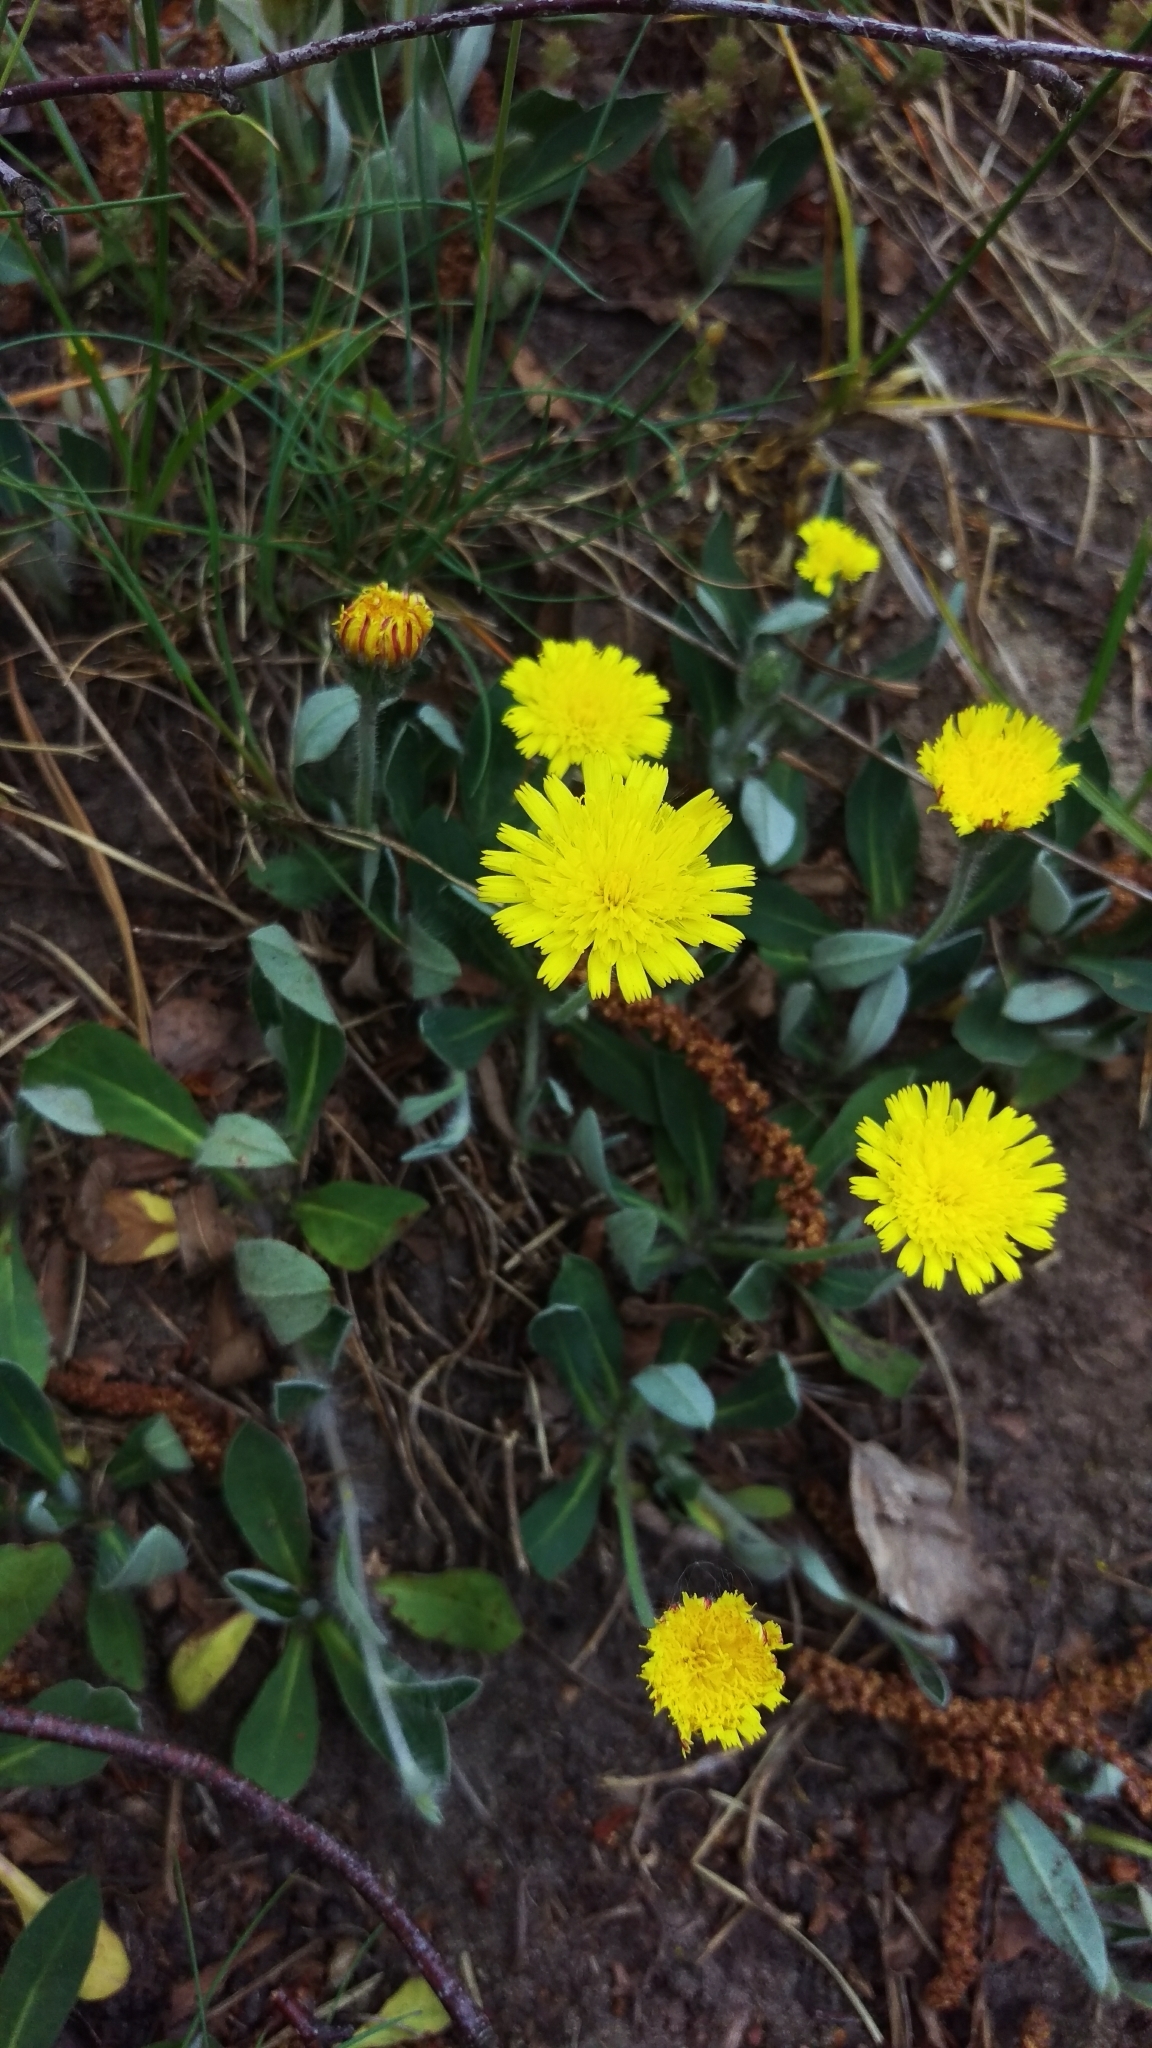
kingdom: Plantae
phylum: Tracheophyta
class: Magnoliopsida
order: Asterales
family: Asteraceae
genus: Pilosella
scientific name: Pilosella officinarum
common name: Mouse-ear hawkweed
